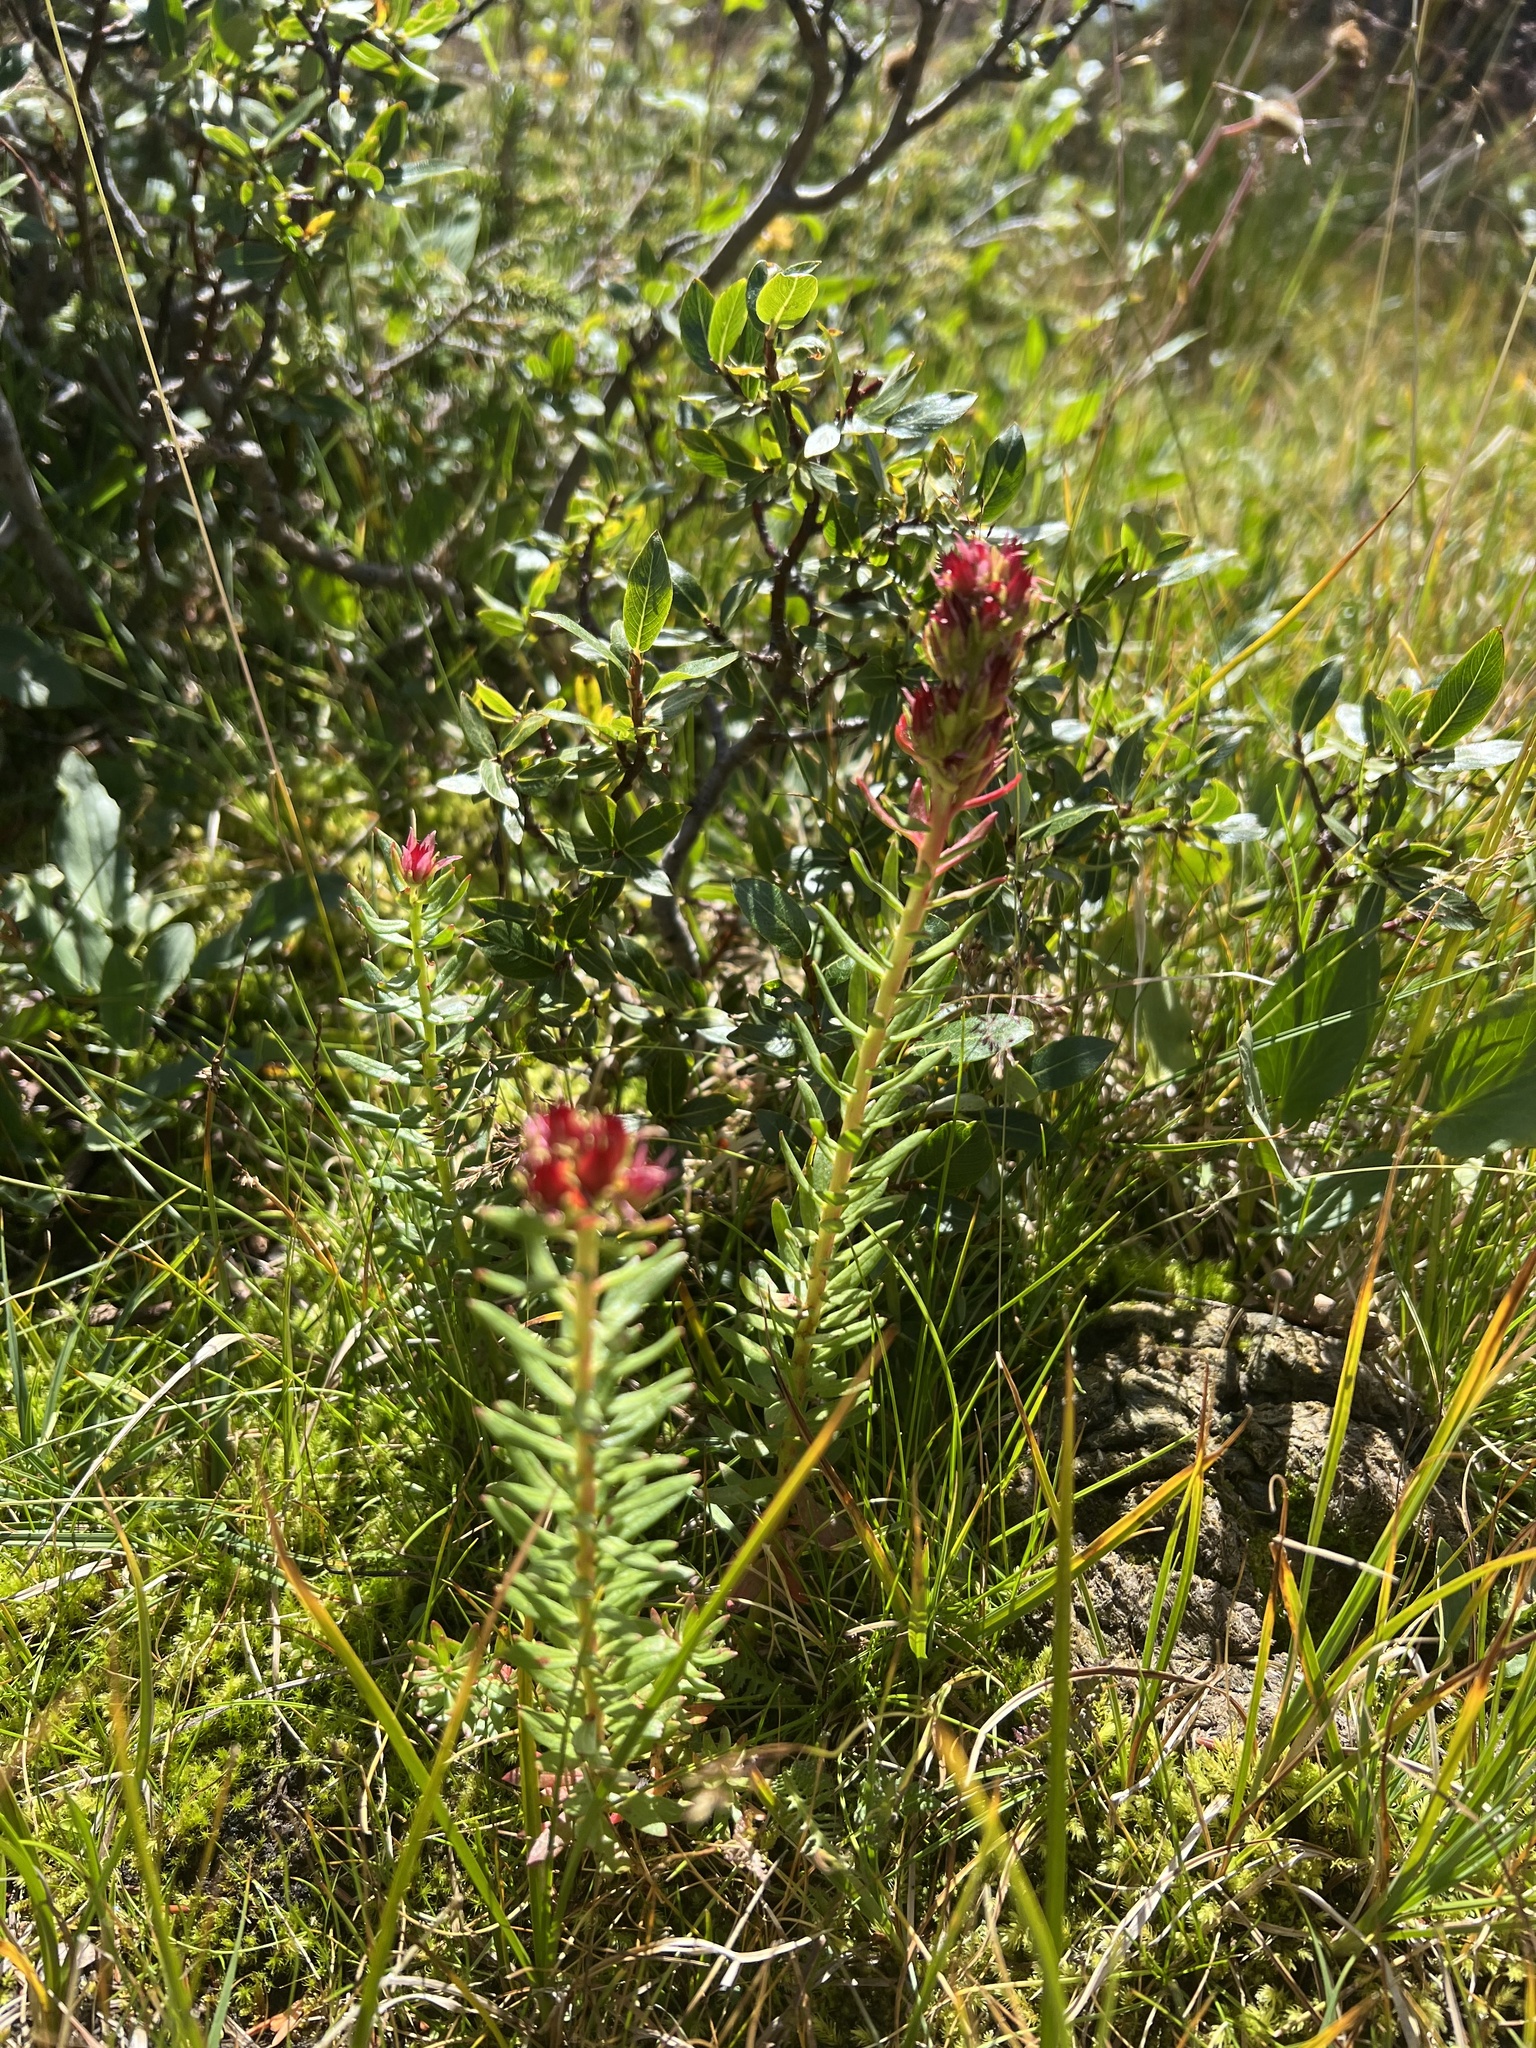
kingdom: Plantae
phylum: Tracheophyta
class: Magnoliopsida
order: Saxifragales
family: Crassulaceae
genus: Rhodiola
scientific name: Rhodiola rhodantha
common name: Red orpine
